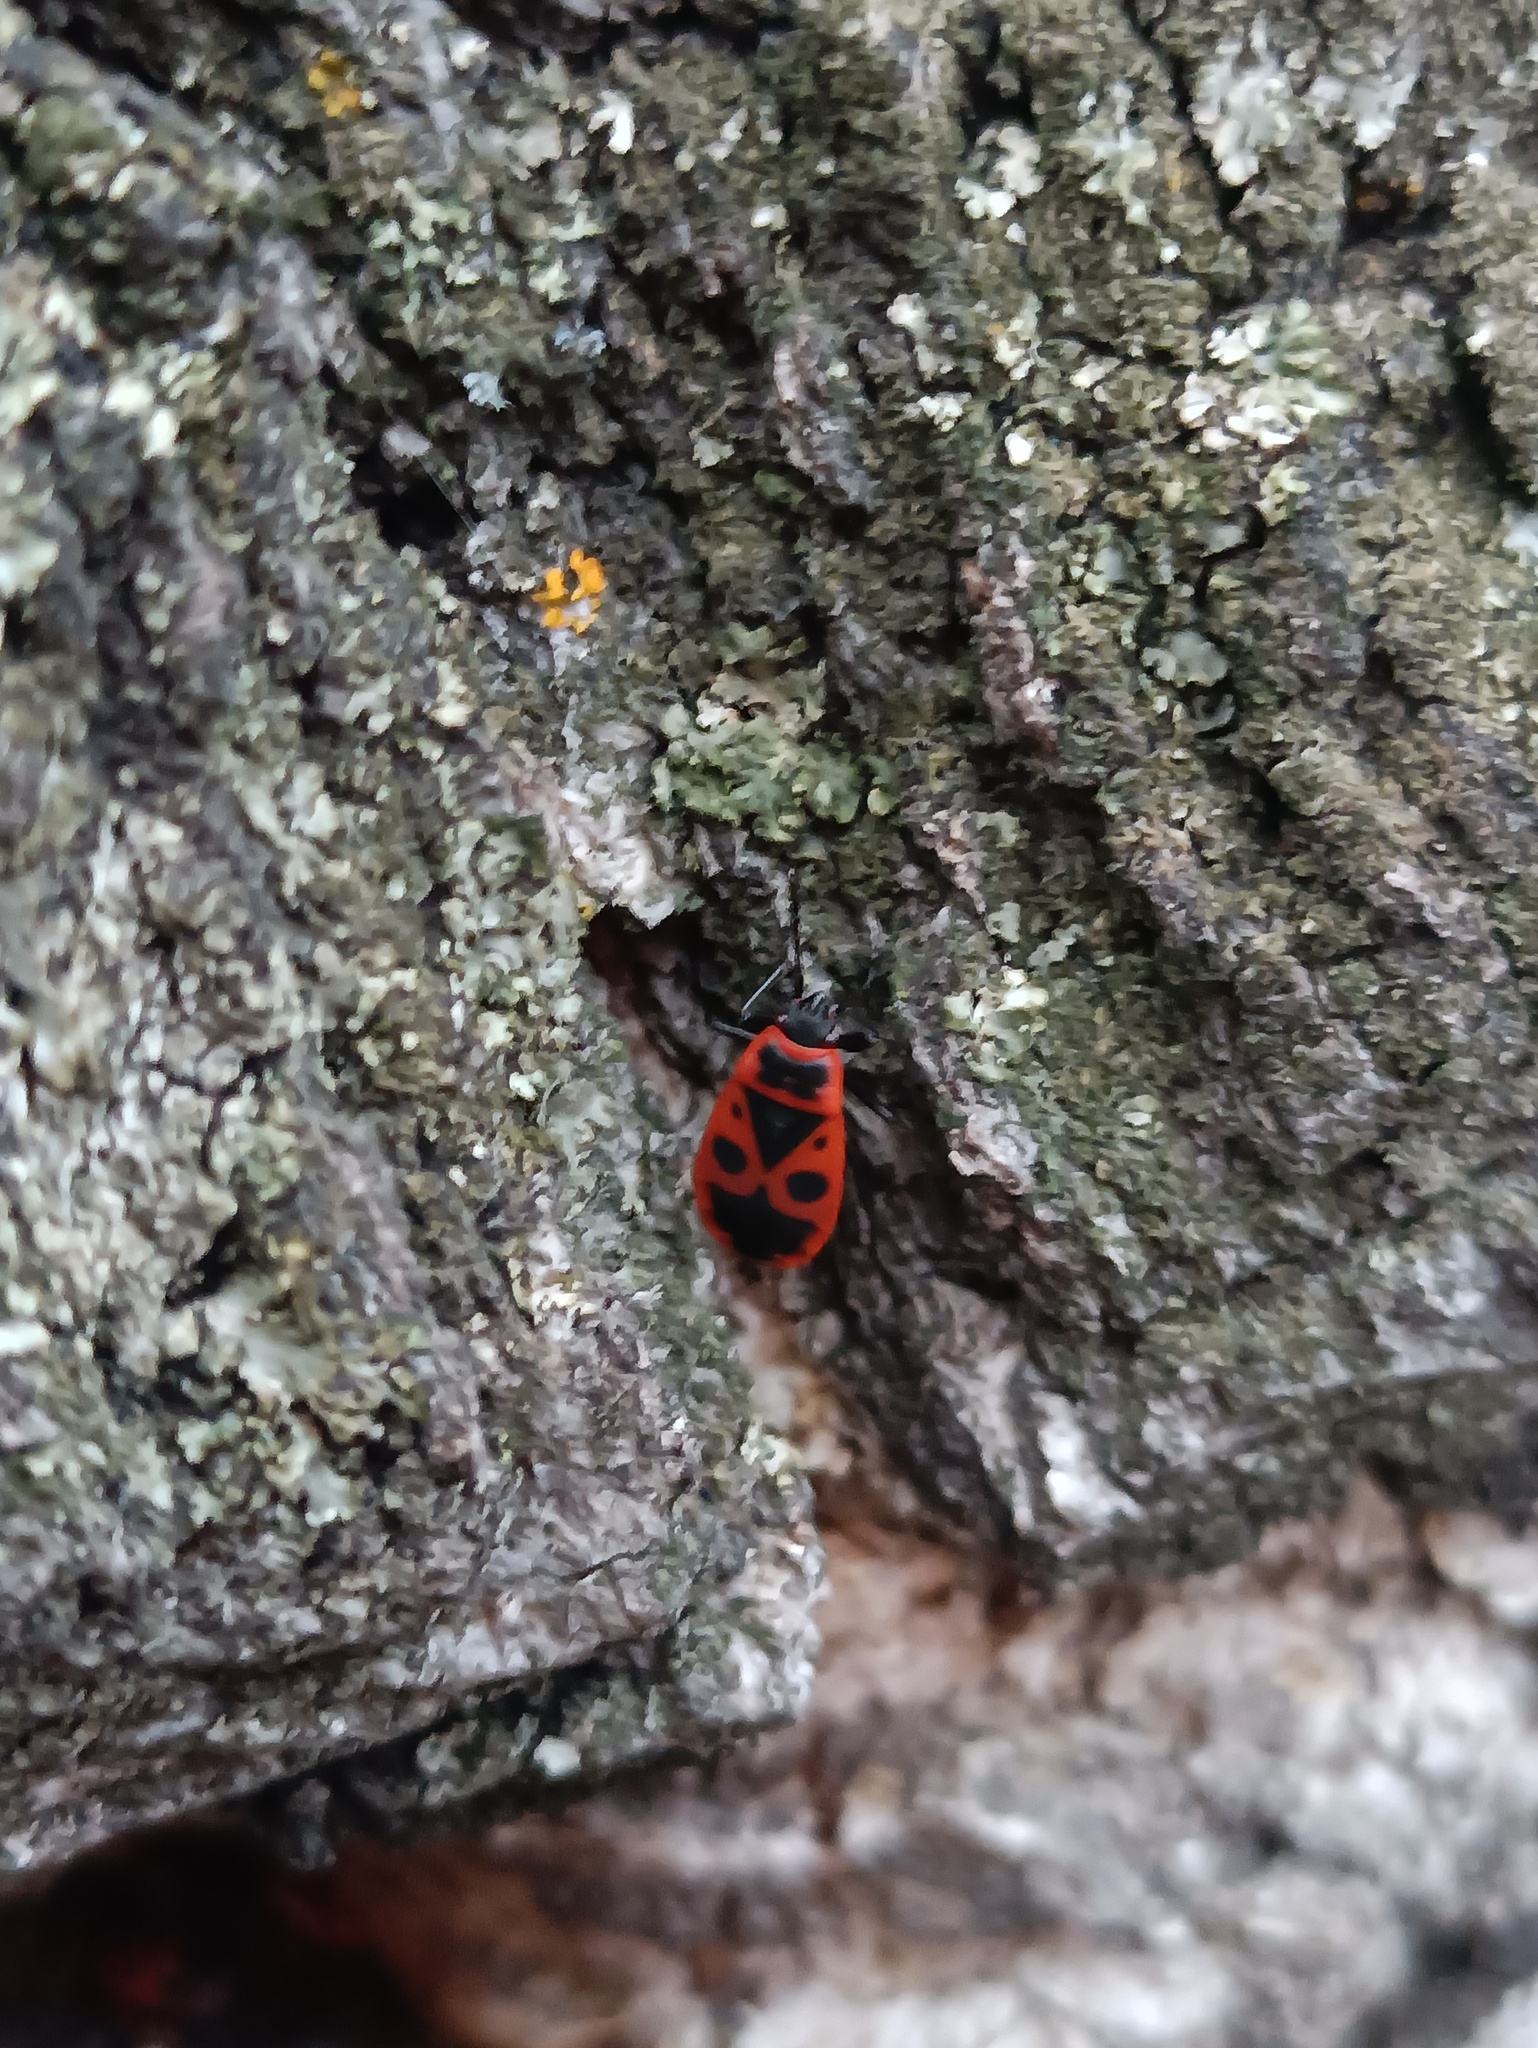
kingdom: Animalia
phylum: Arthropoda
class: Insecta
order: Hemiptera
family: Pyrrhocoridae
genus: Pyrrhocoris
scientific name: Pyrrhocoris apterus
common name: Firebug
